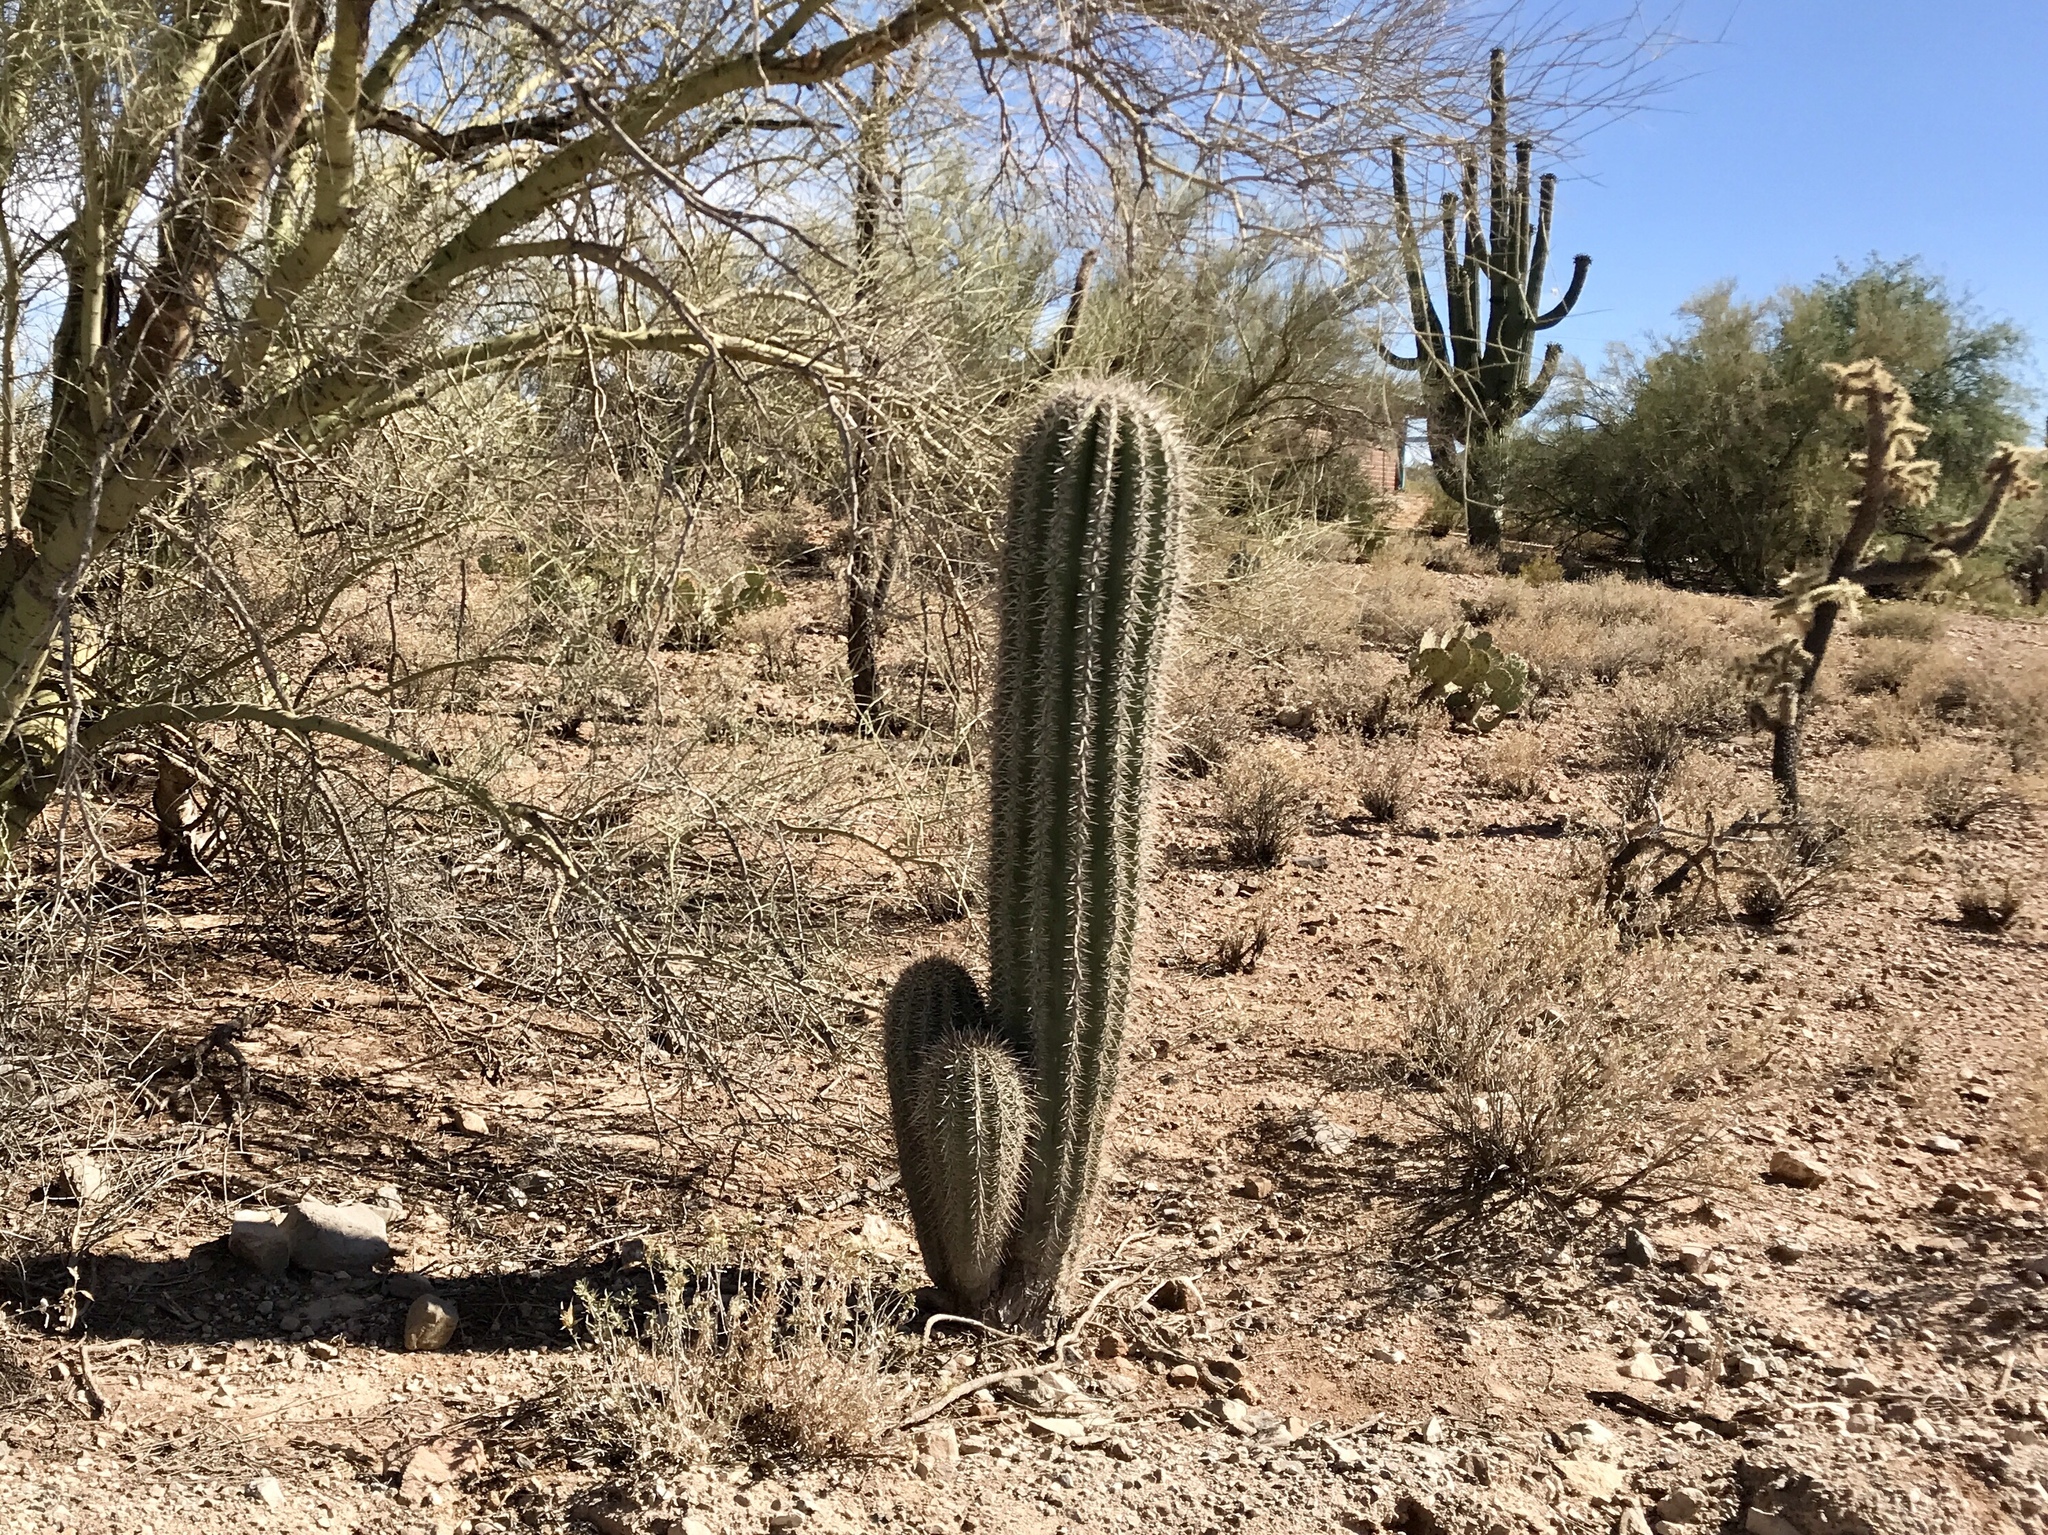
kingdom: Plantae
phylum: Tracheophyta
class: Magnoliopsida
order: Caryophyllales
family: Cactaceae
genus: Carnegiea
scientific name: Carnegiea gigantea
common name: Saguaro
